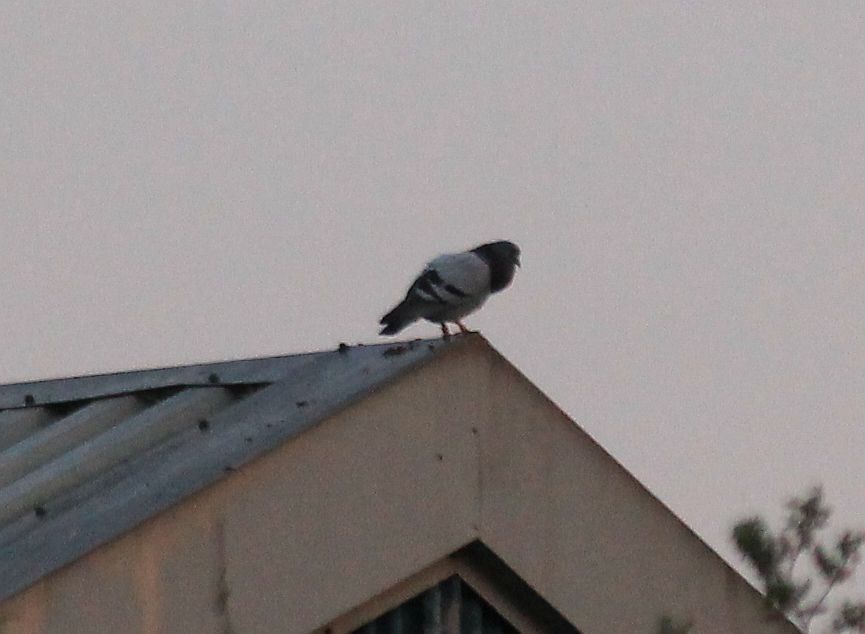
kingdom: Animalia
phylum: Chordata
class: Aves
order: Columbiformes
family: Columbidae
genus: Columba
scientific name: Columba livia
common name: Rock pigeon
